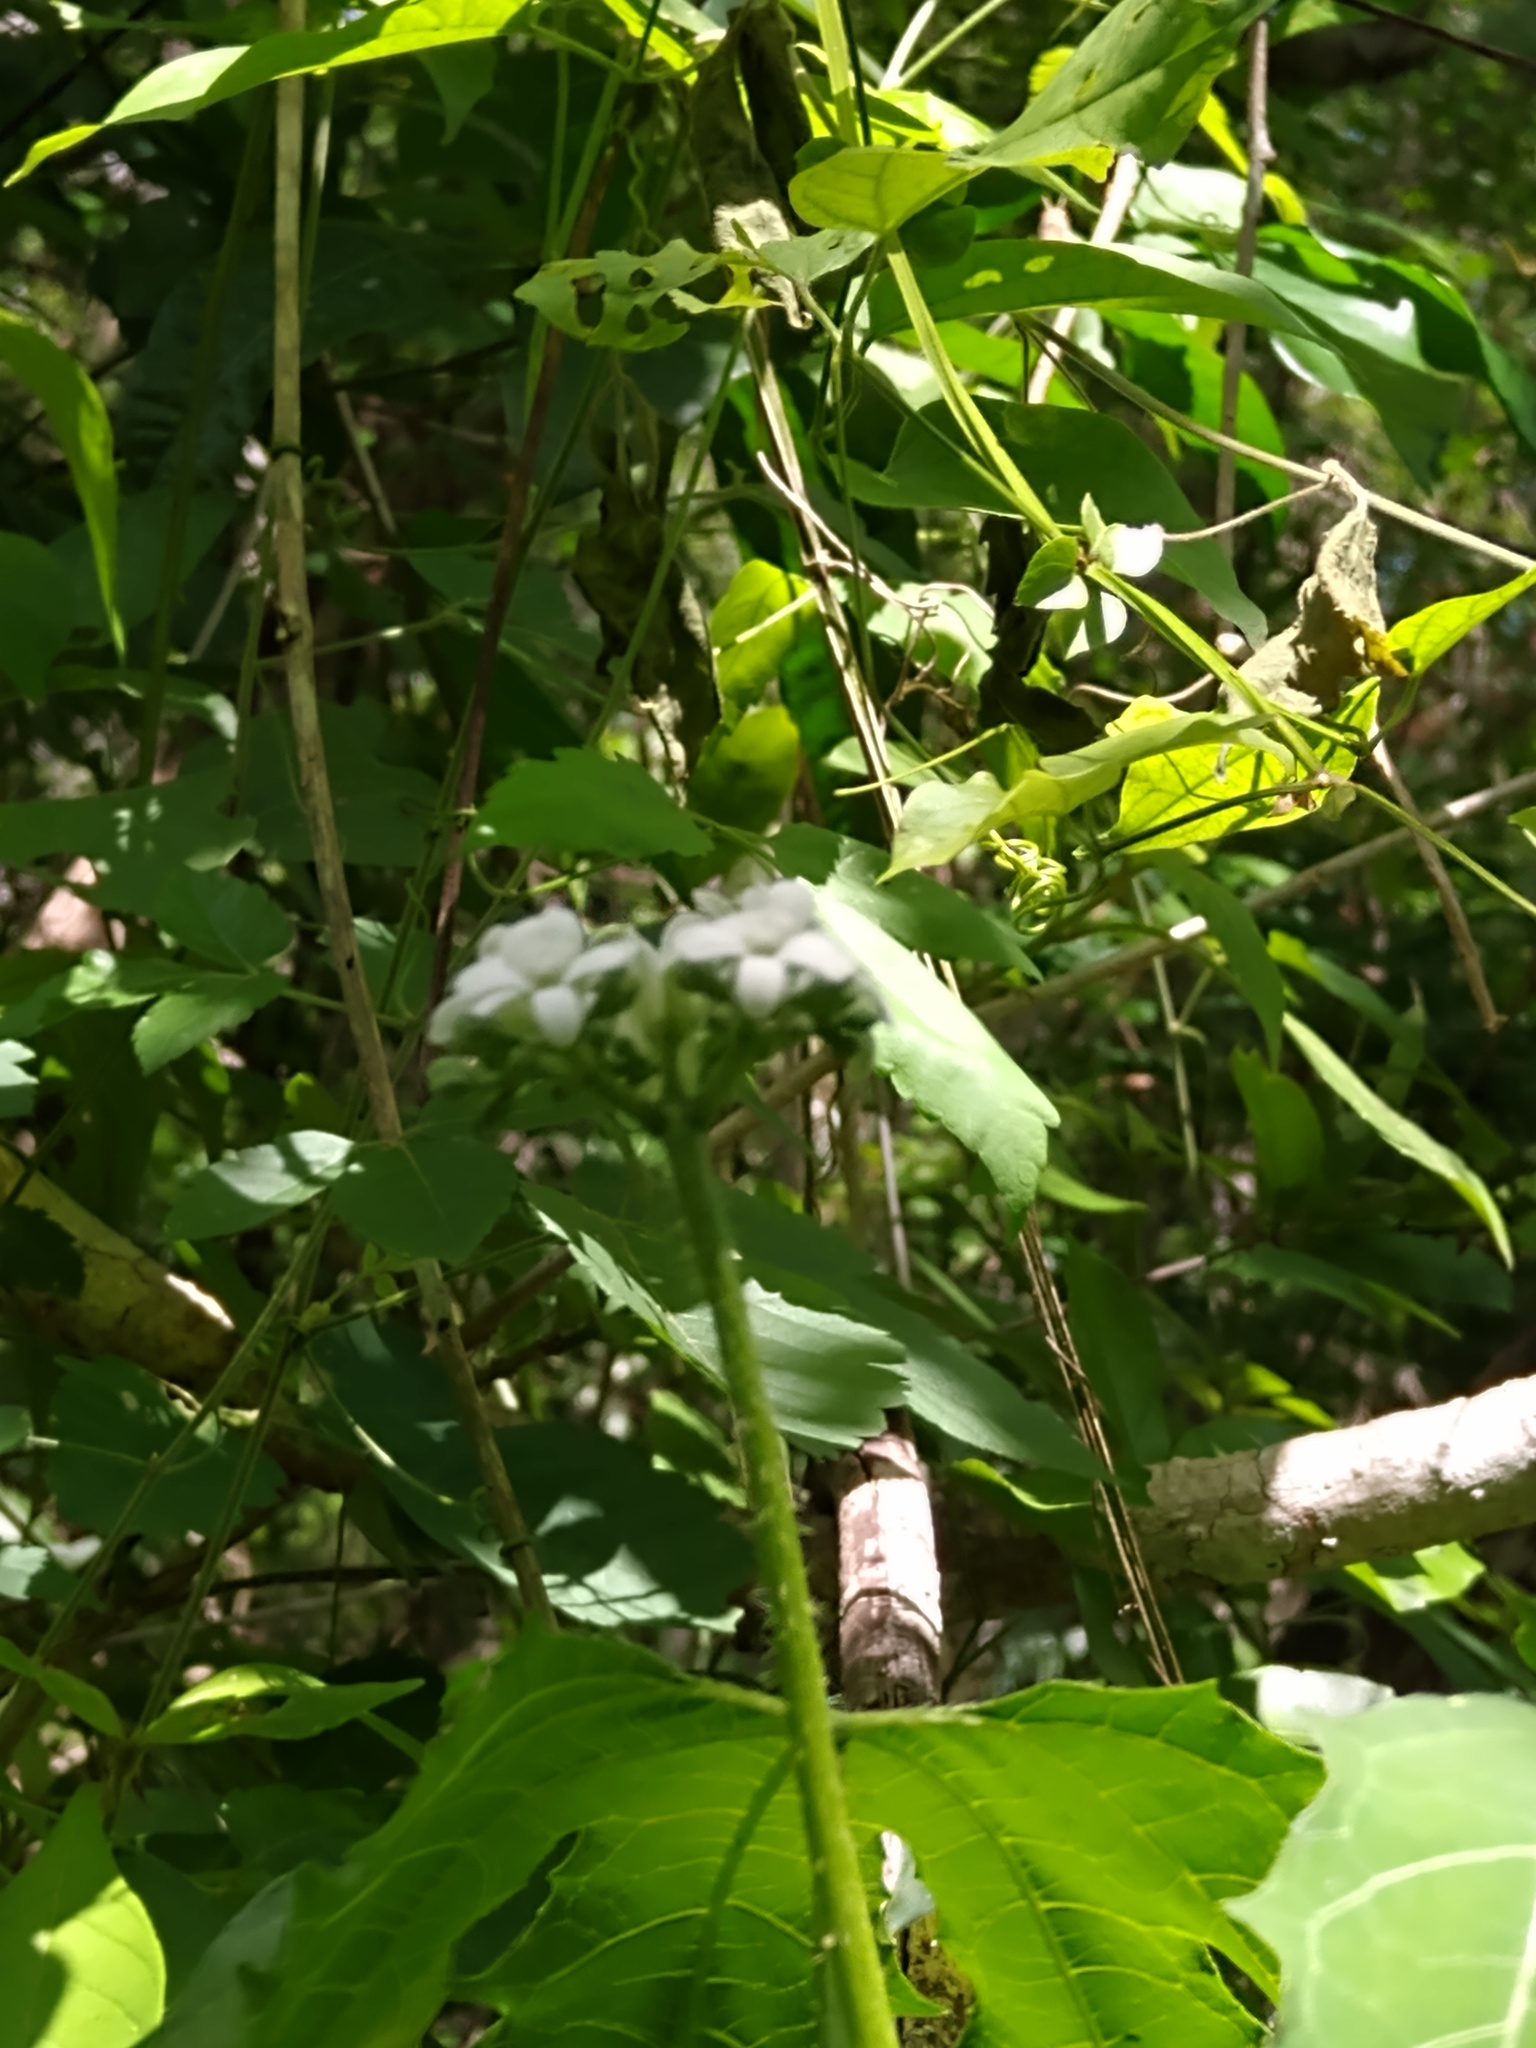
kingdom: Plantae
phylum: Tracheophyta
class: Magnoliopsida
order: Malpighiales
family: Euphorbiaceae
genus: Cnidoscolus
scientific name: Cnidoscolus aconitifolius
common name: Cabbage-star
